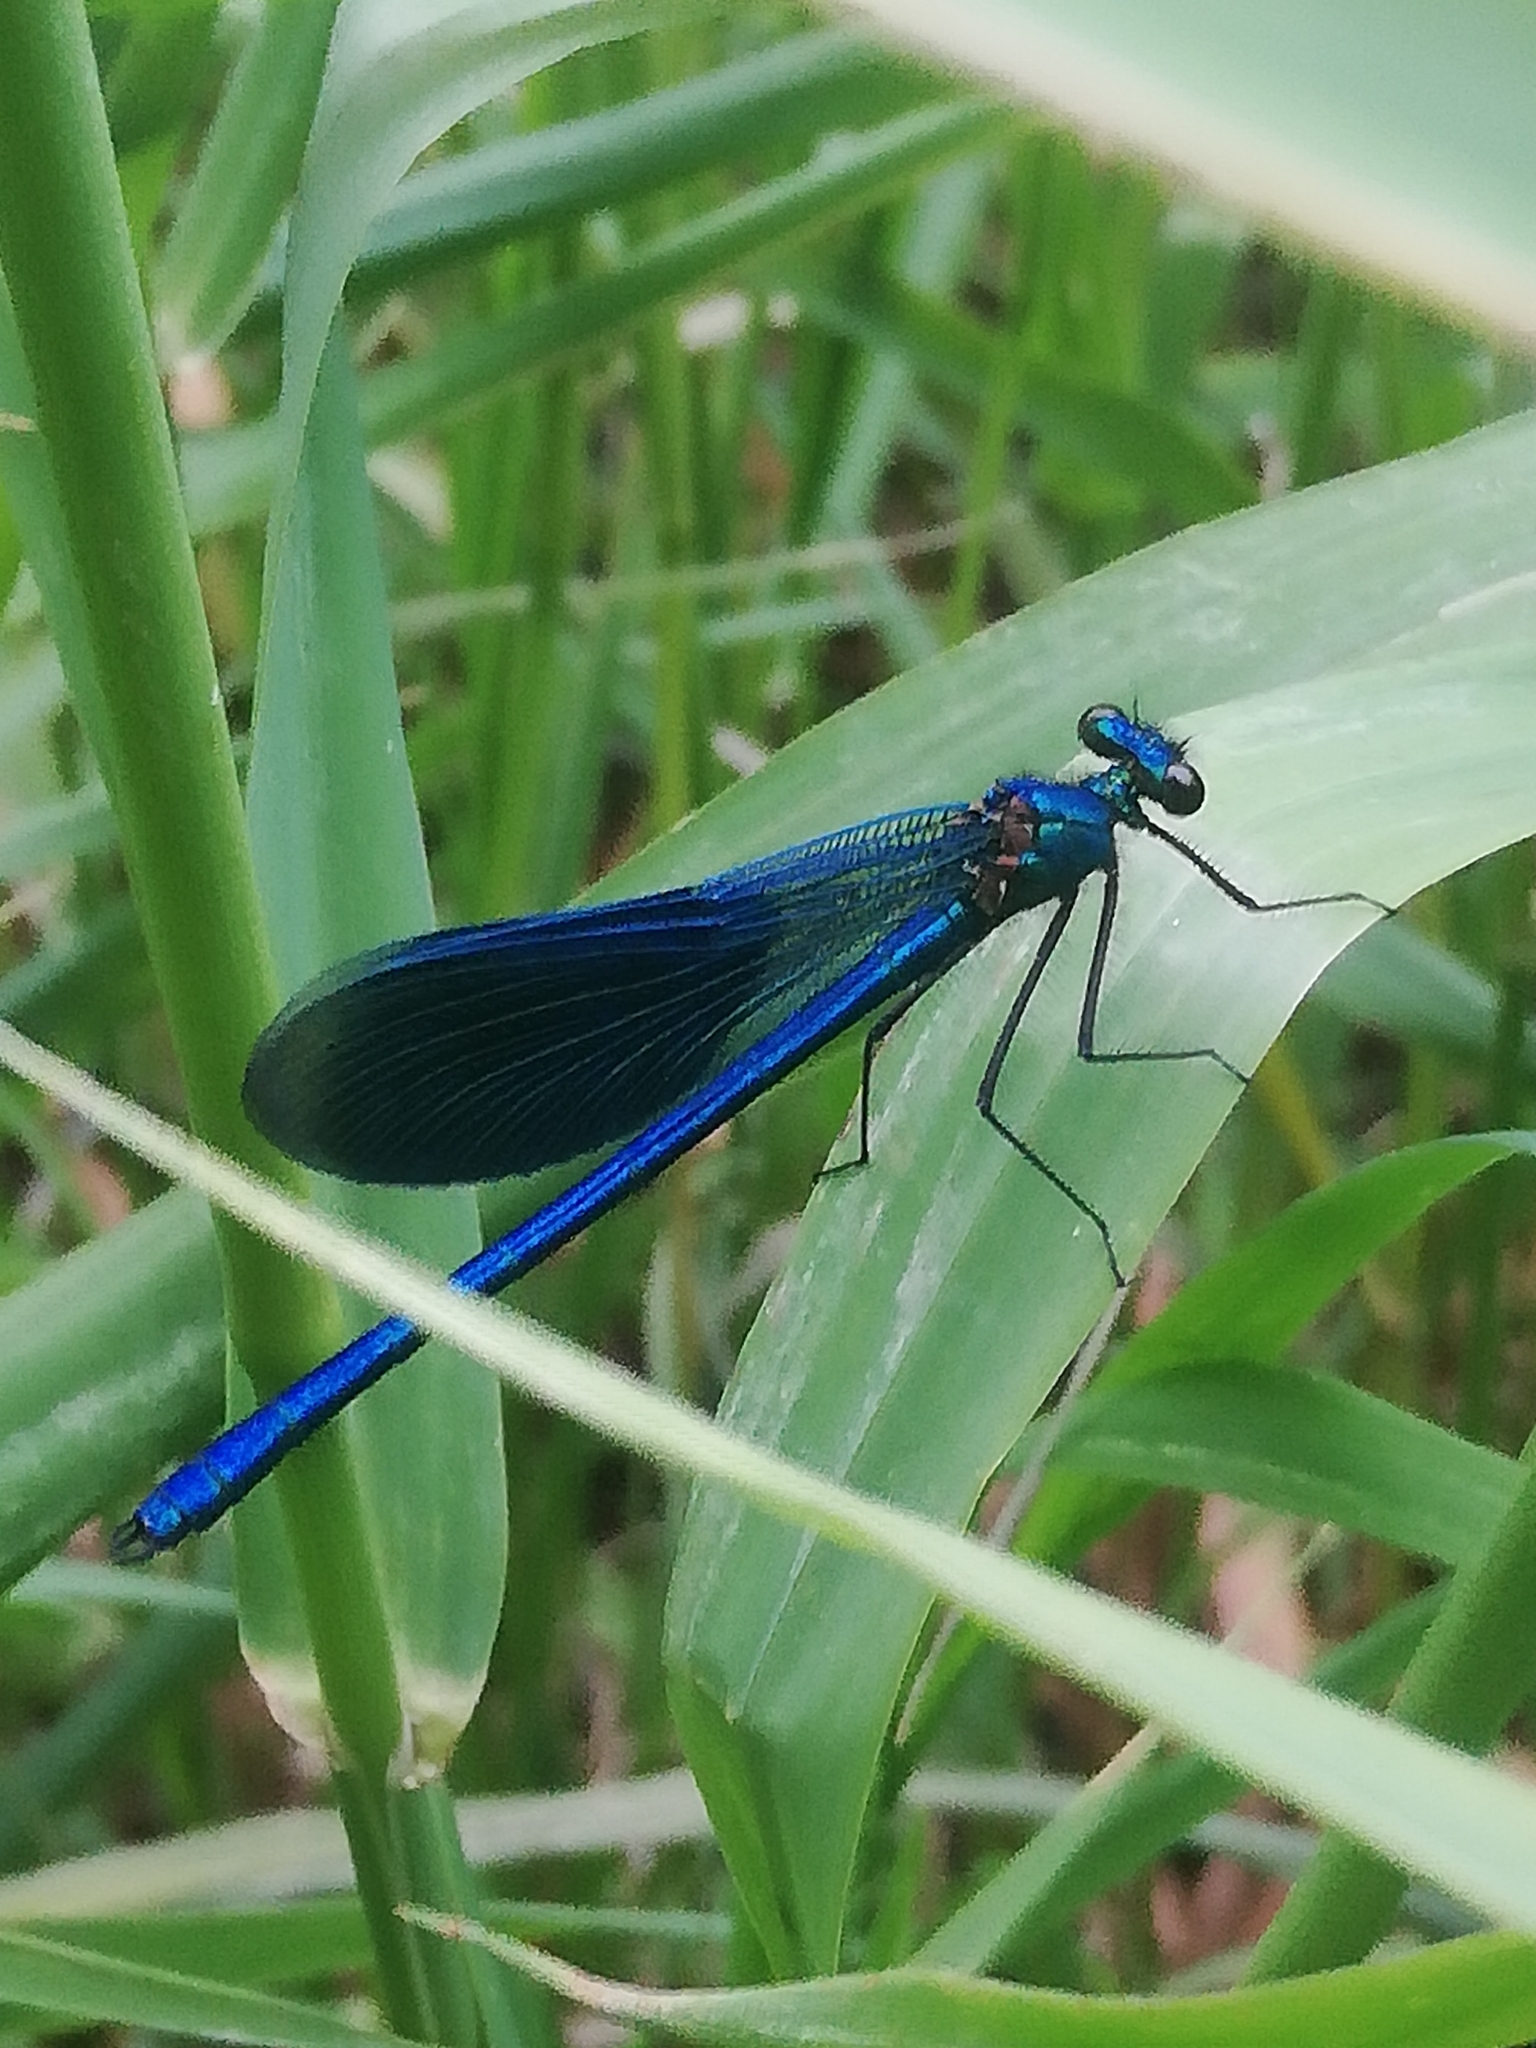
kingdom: Animalia
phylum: Arthropoda
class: Insecta
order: Odonata
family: Calopterygidae
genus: Calopteryx
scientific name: Calopteryx splendens
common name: Banded demoiselle
